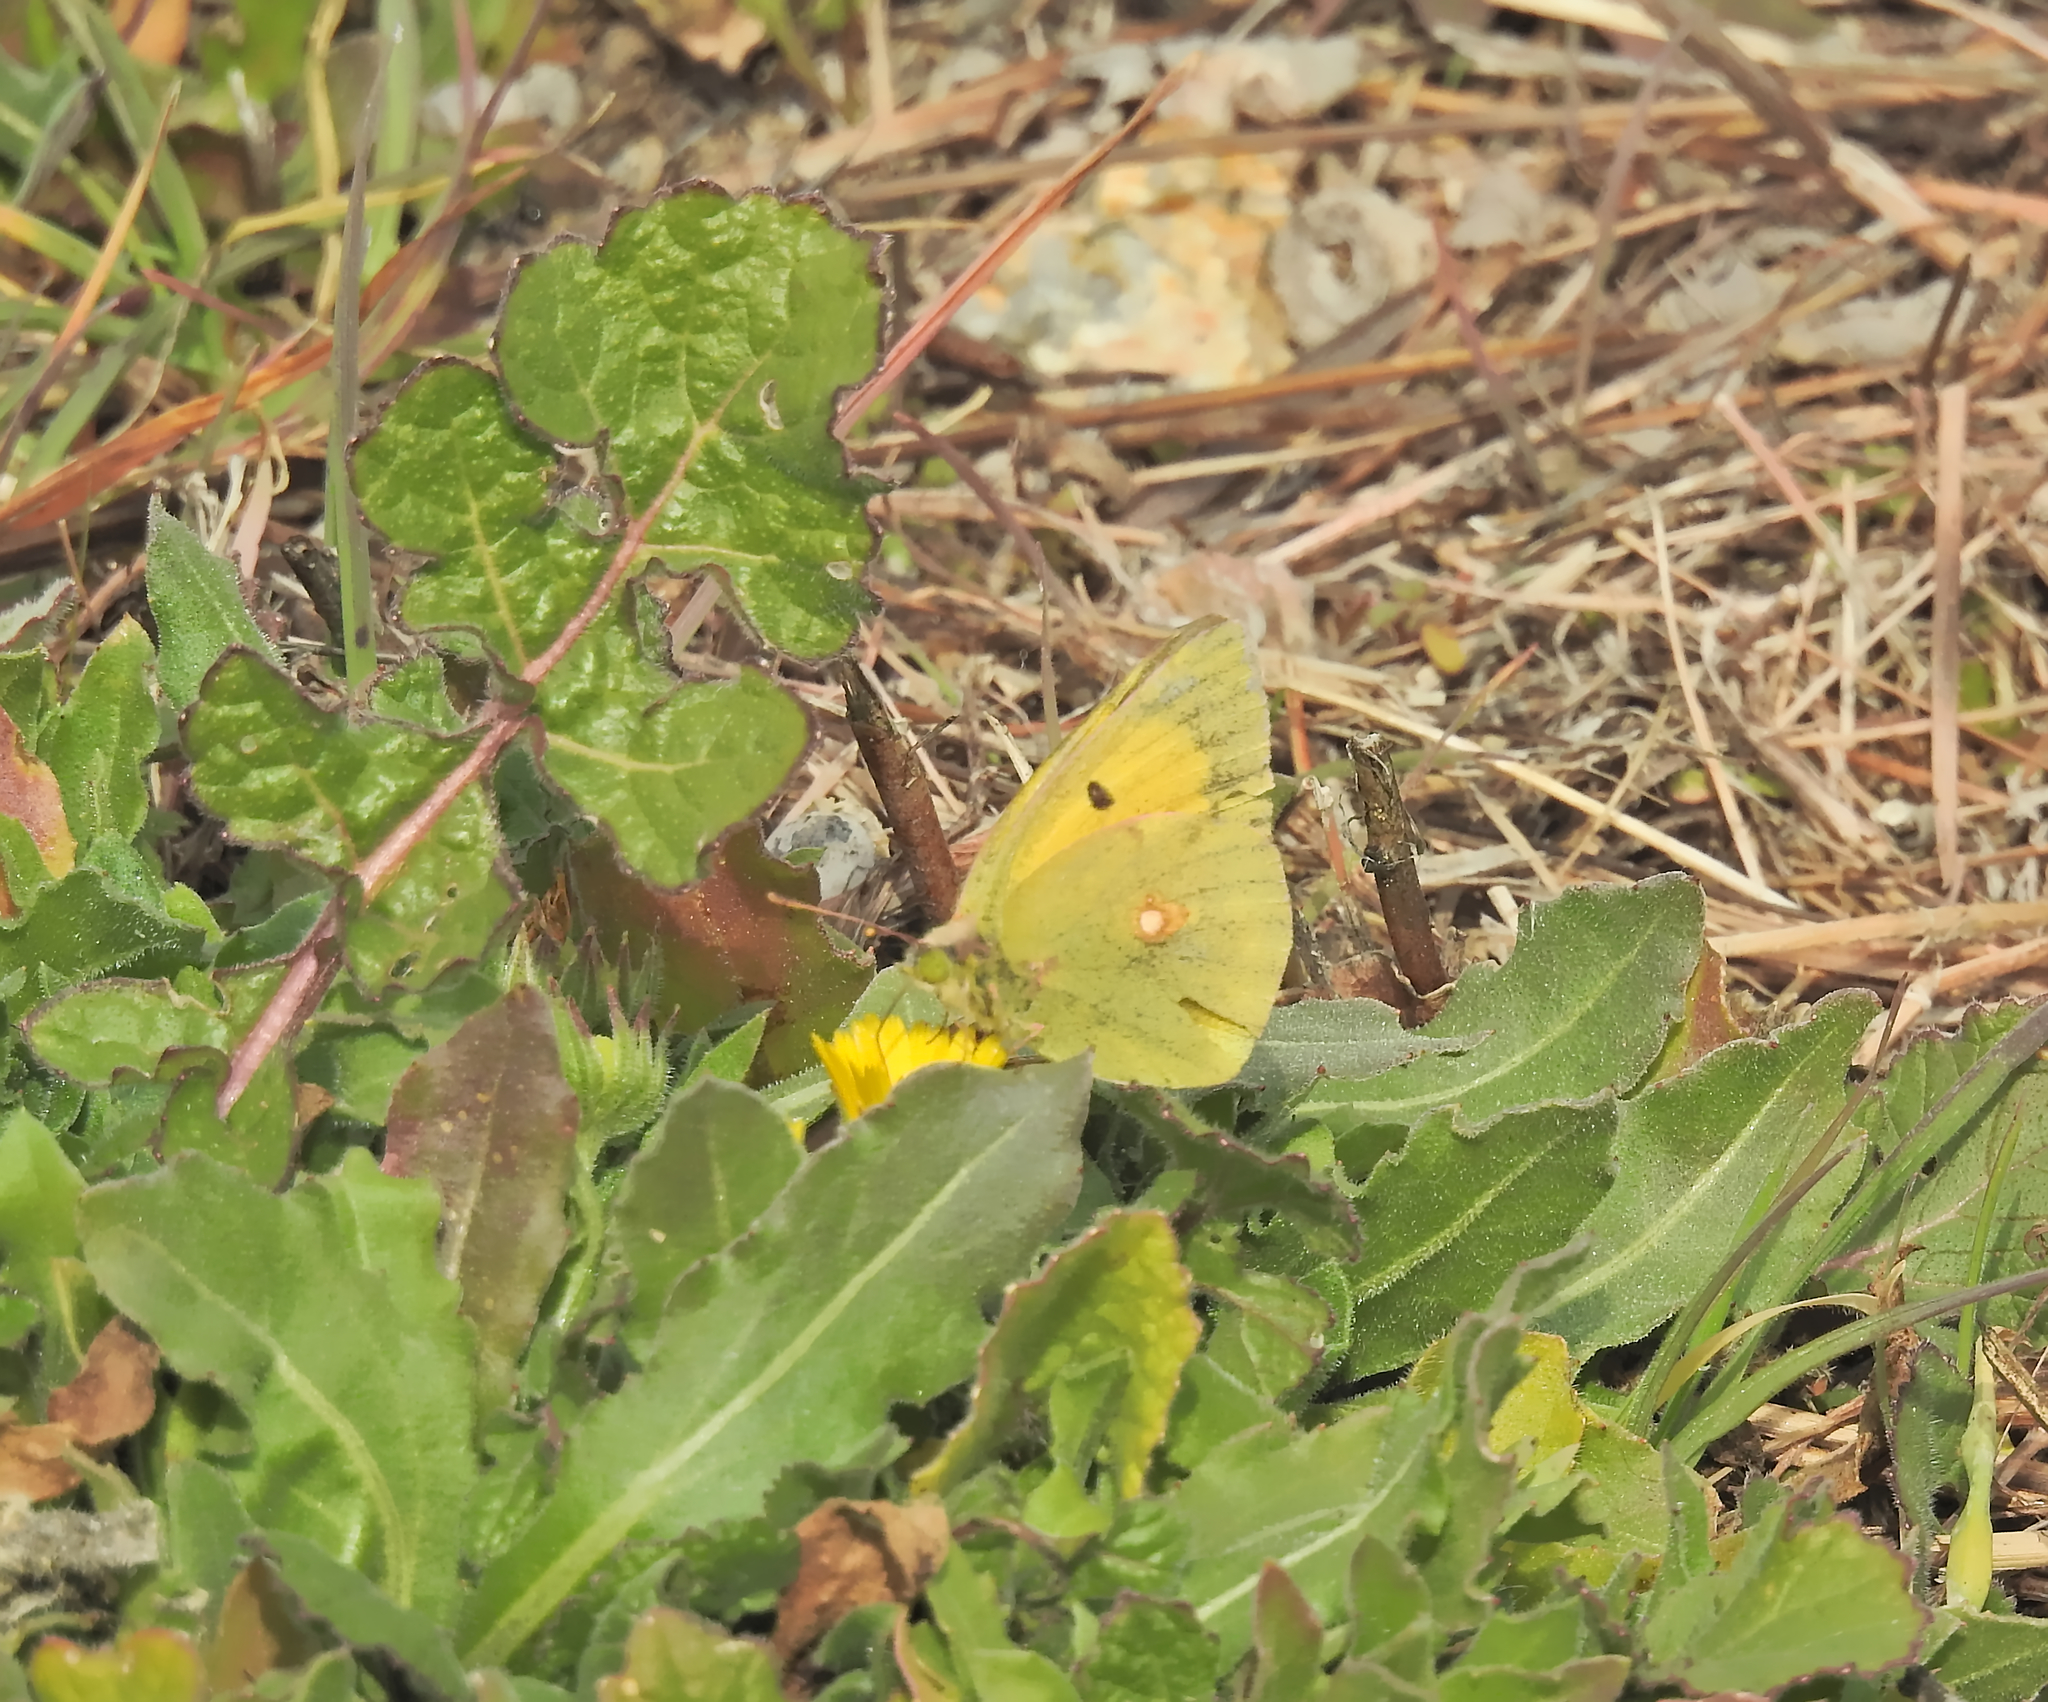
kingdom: Animalia
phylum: Arthropoda
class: Insecta
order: Lepidoptera
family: Pieridae
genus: Colias
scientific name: Colias croceus
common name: Clouded yellow
